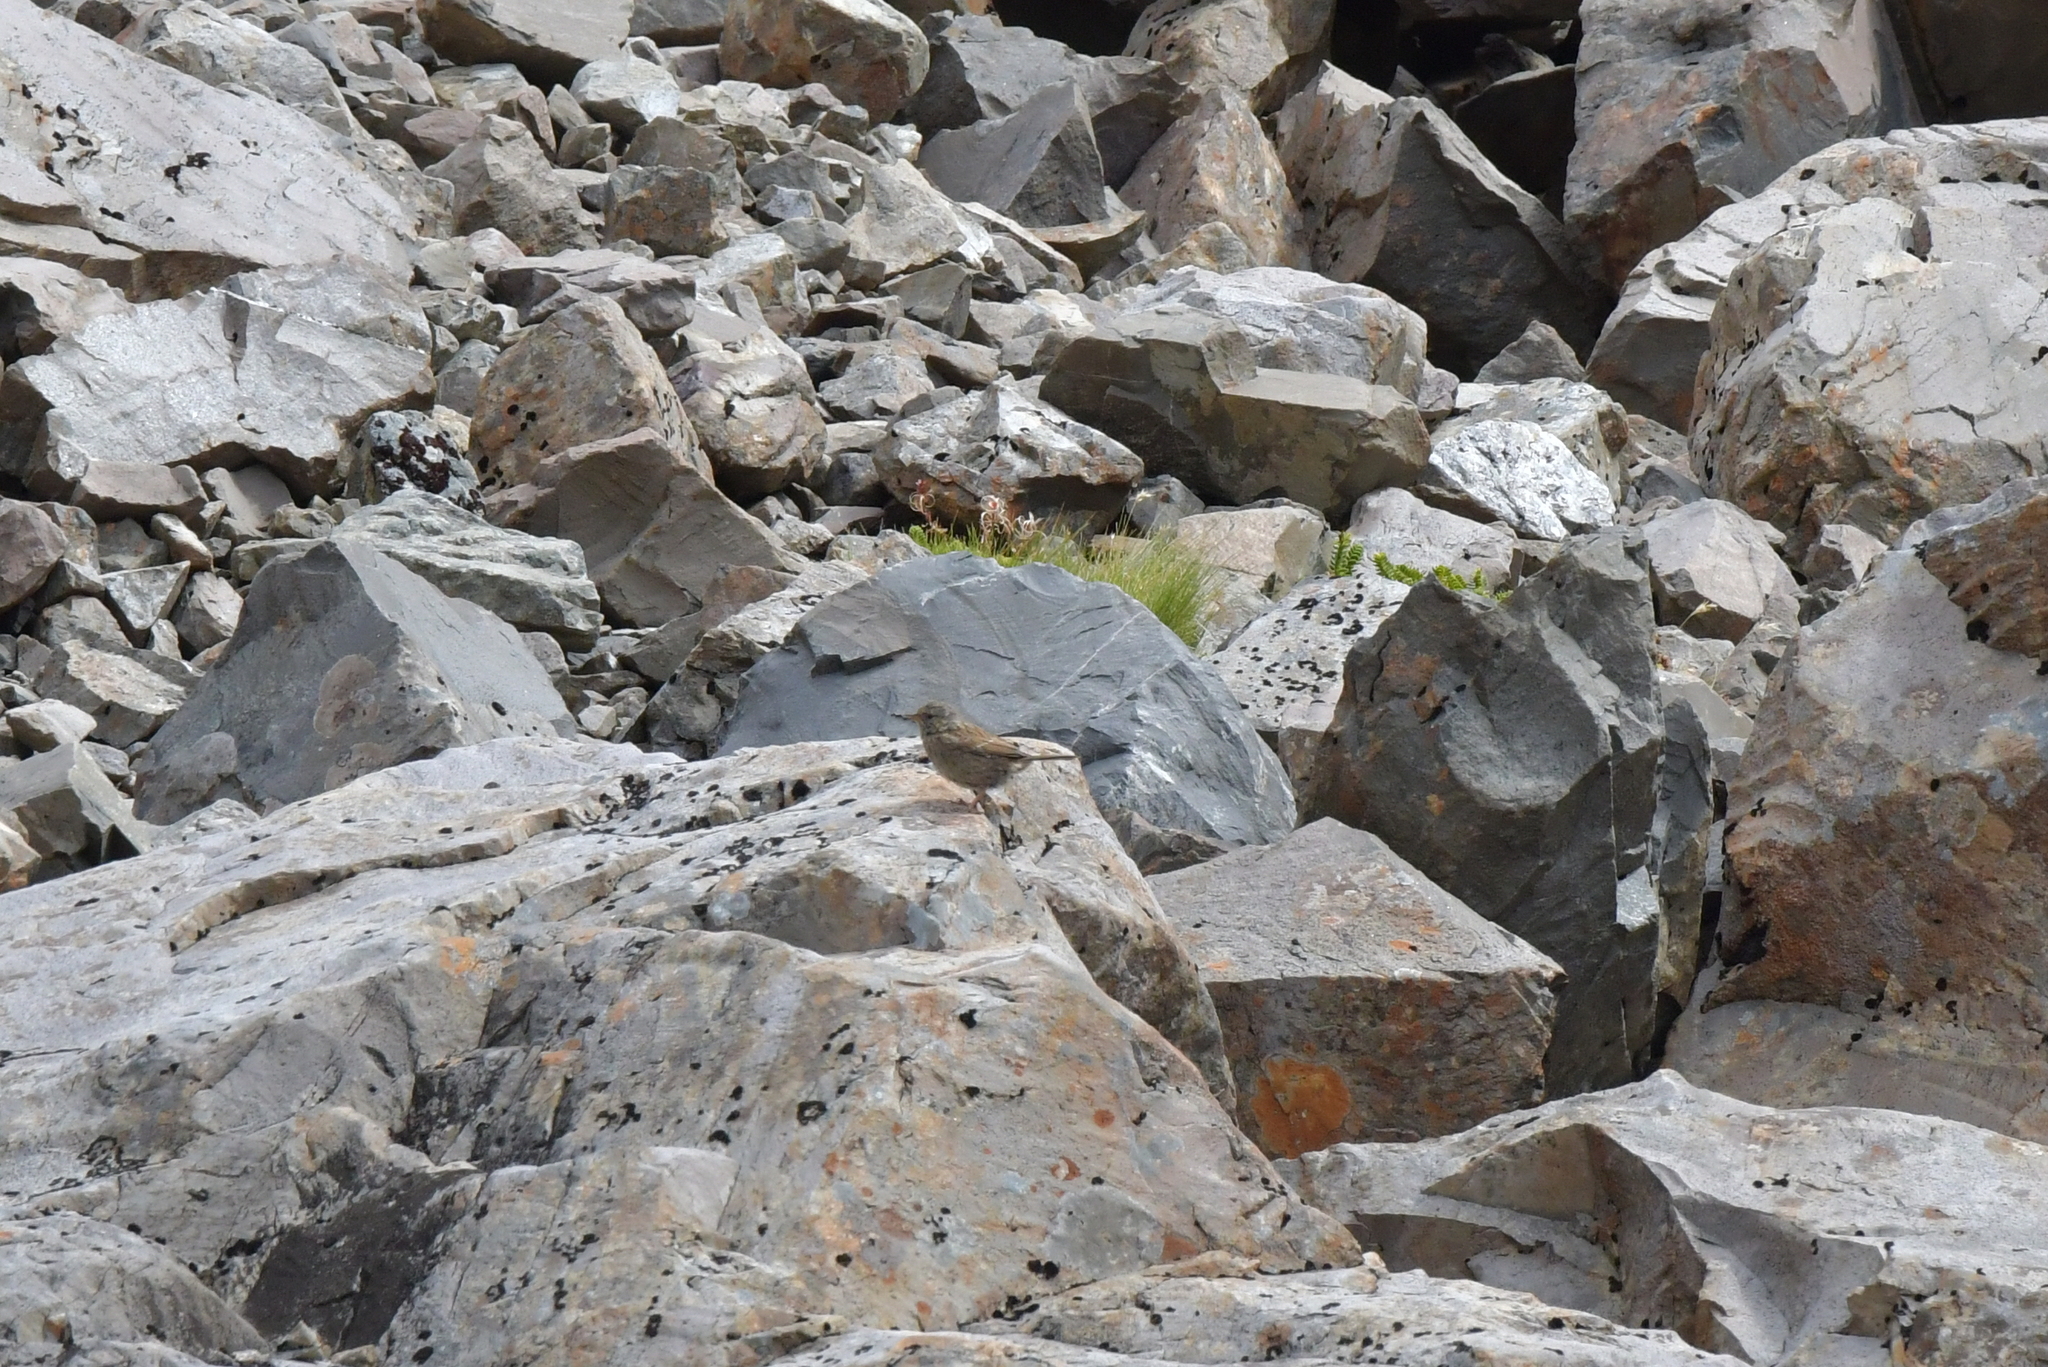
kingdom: Animalia
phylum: Chordata
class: Aves
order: Passeriformes
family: Prunellidae
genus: Prunella
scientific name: Prunella modularis
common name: Dunnock
